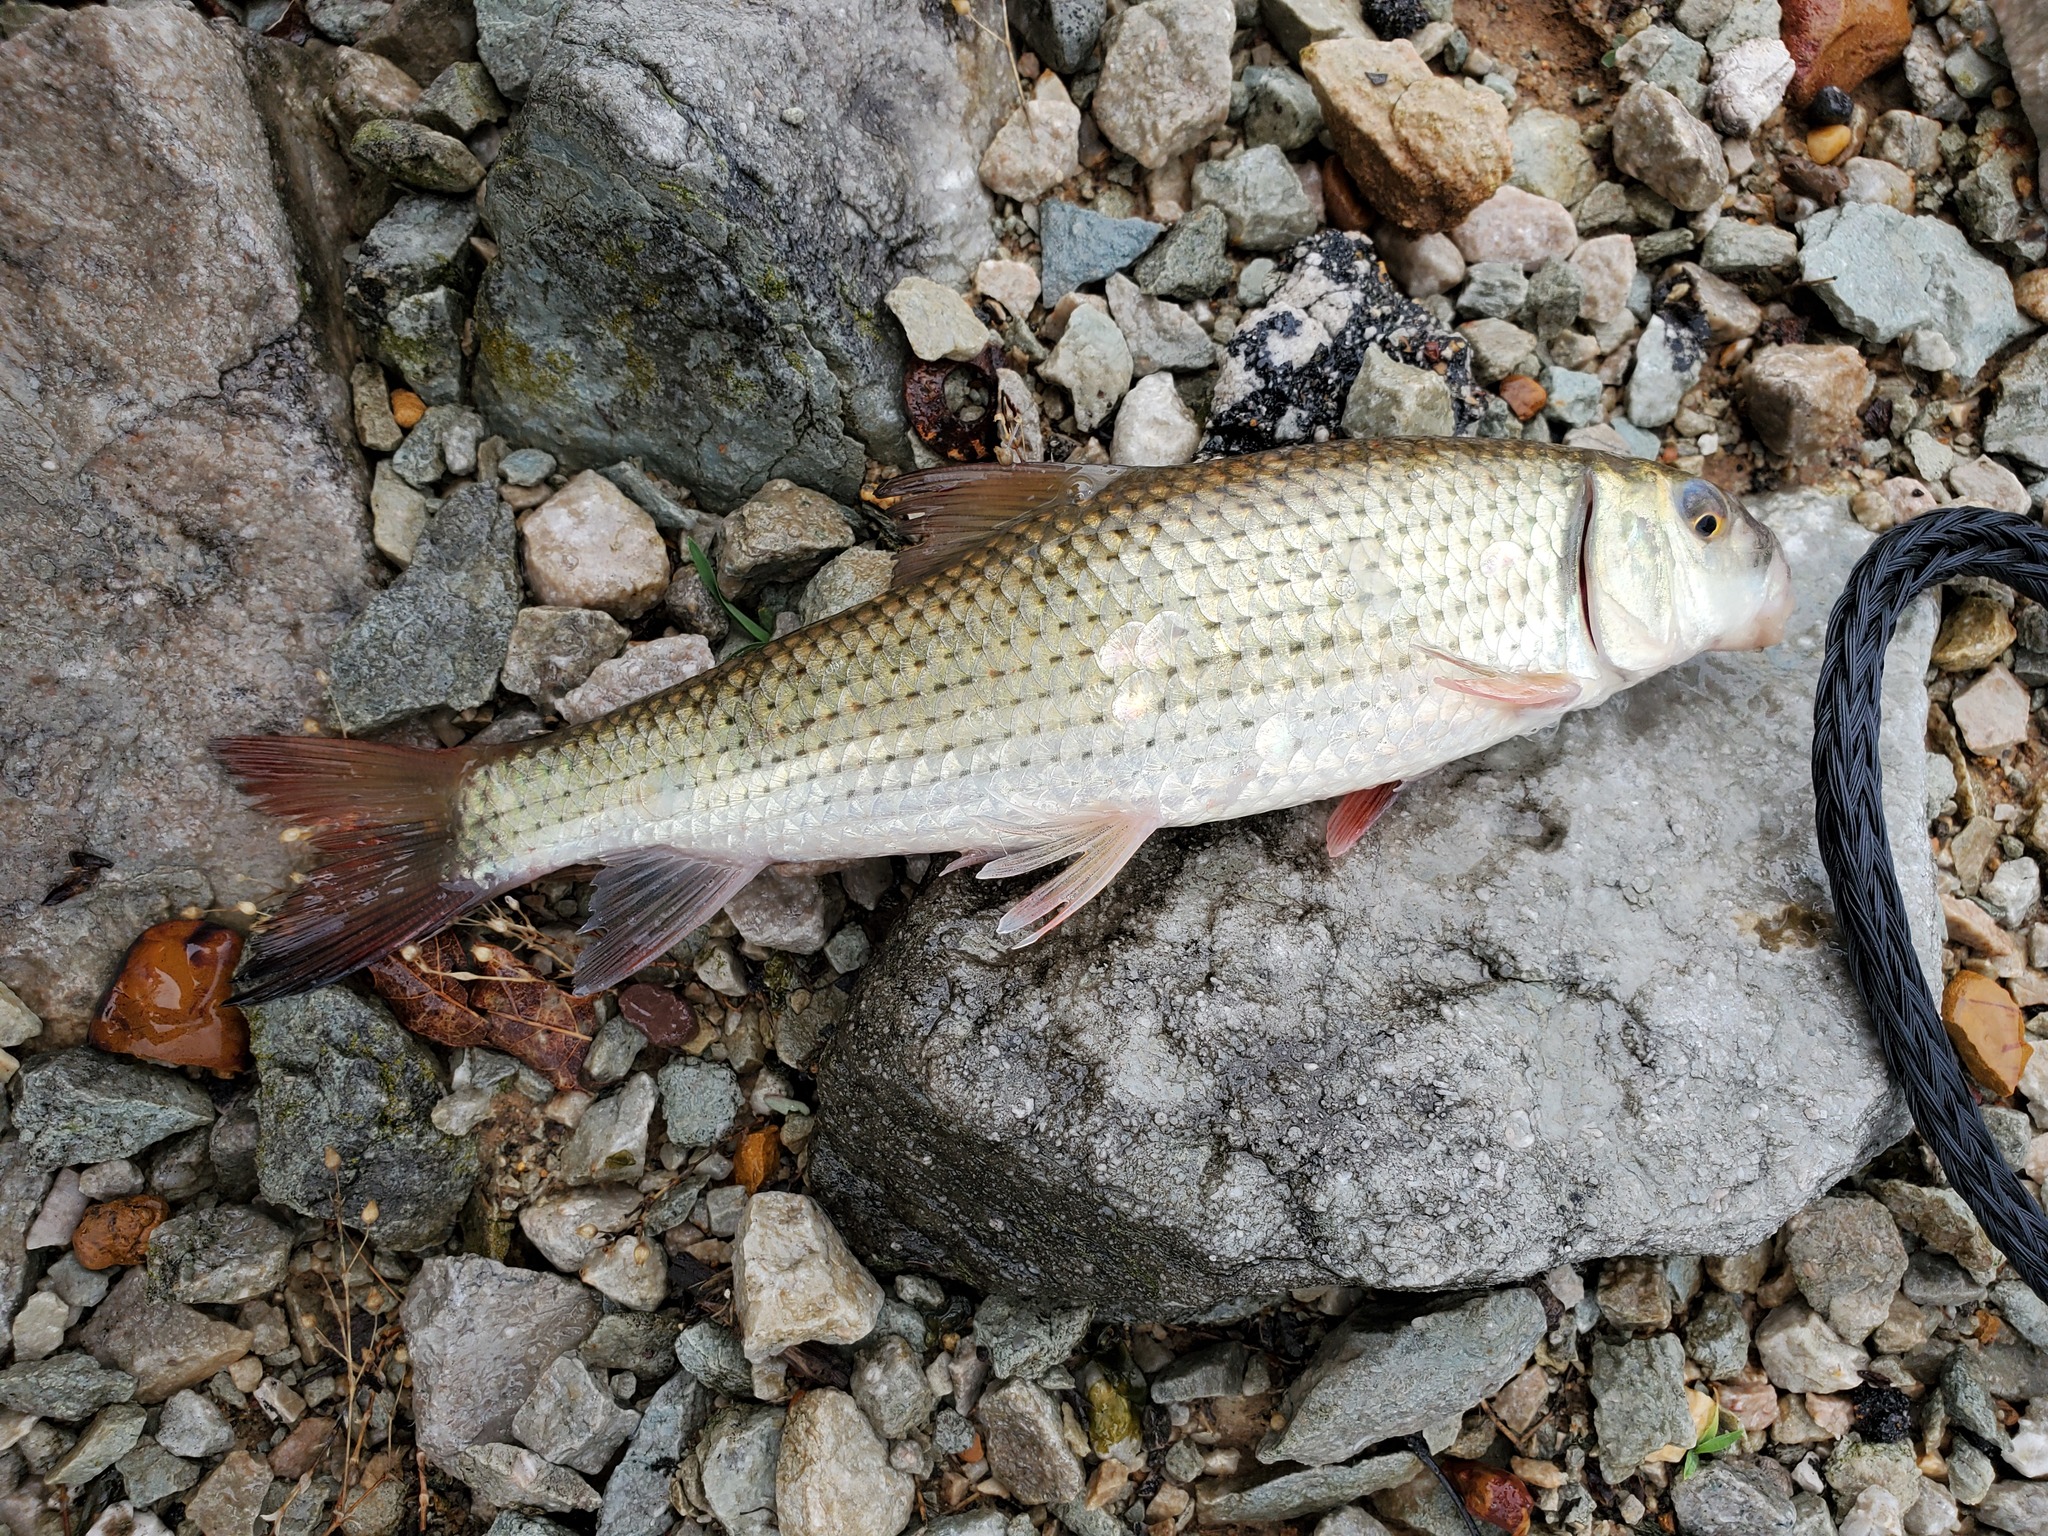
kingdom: Animalia
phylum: Chordata
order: Cypriniformes
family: Catostomidae
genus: Minytrema
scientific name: Minytrema melanops
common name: Spotted sucker
